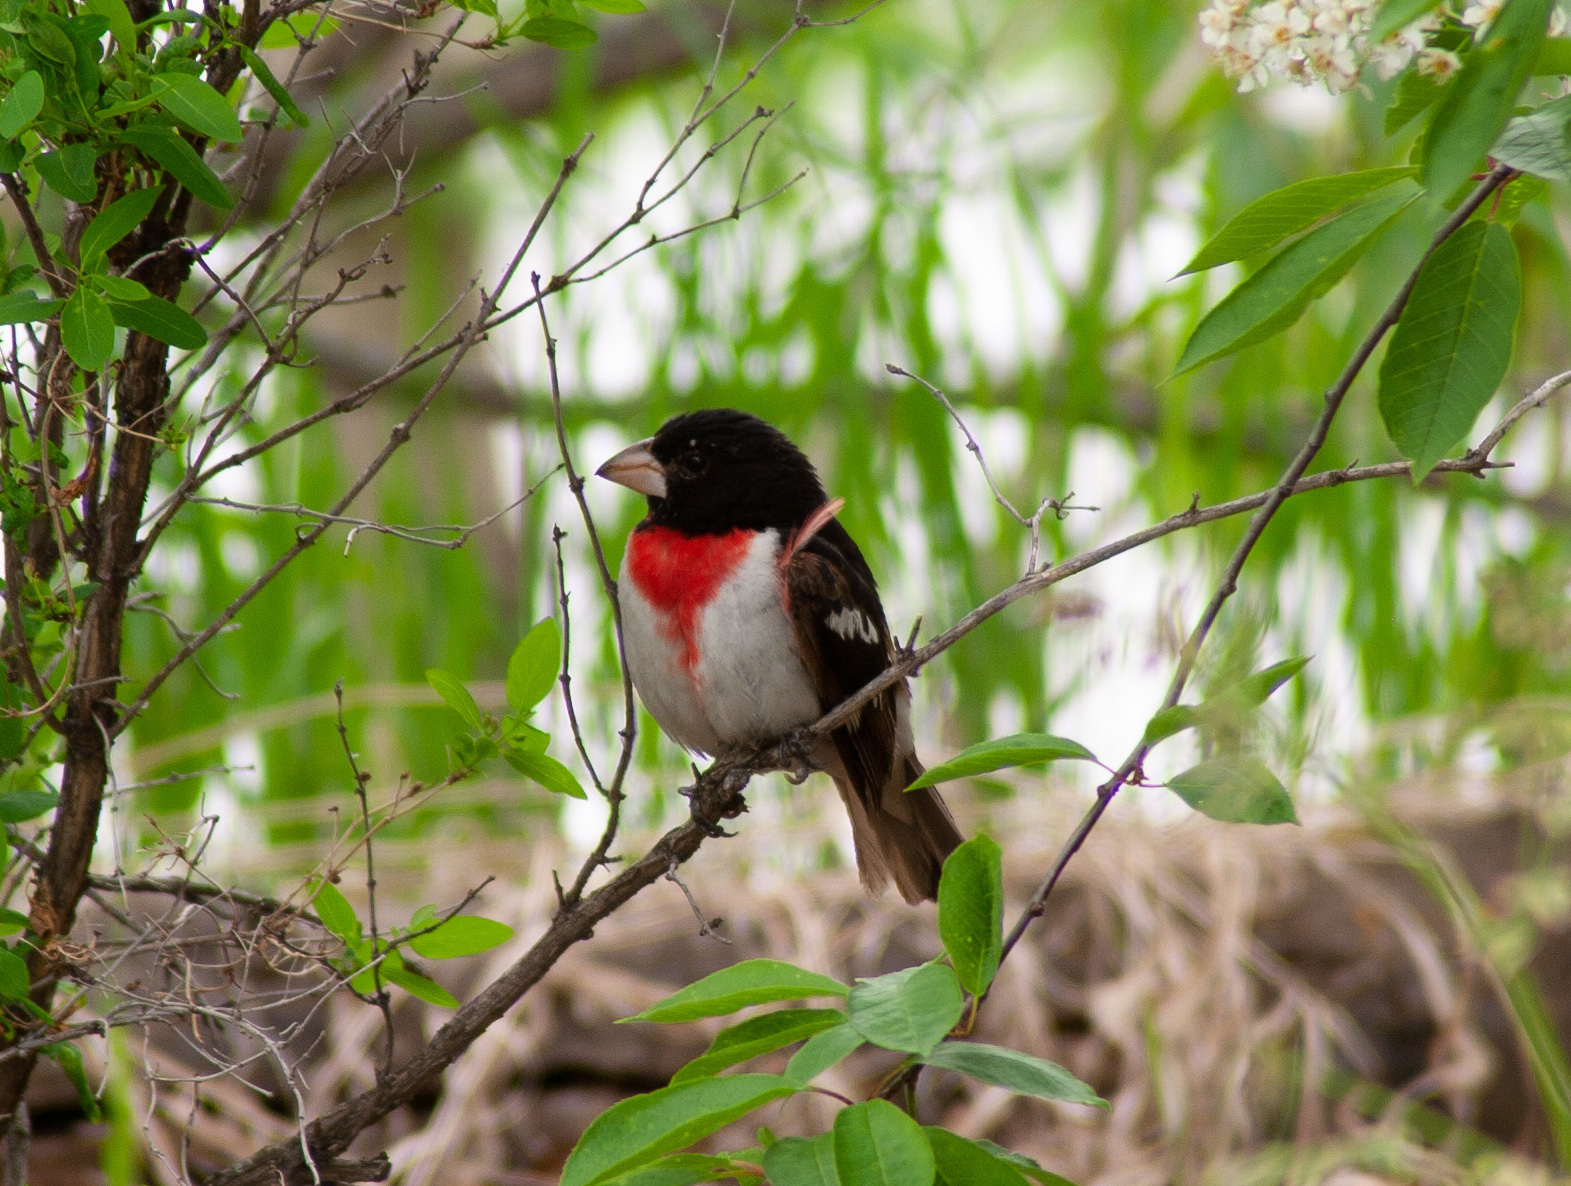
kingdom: Animalia
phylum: Chordata
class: Aves
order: Passeriformes
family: Cardinalidae
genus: Pheucticus
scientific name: Pheucticus ludovicianus
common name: Rose-breasted grosbeak
